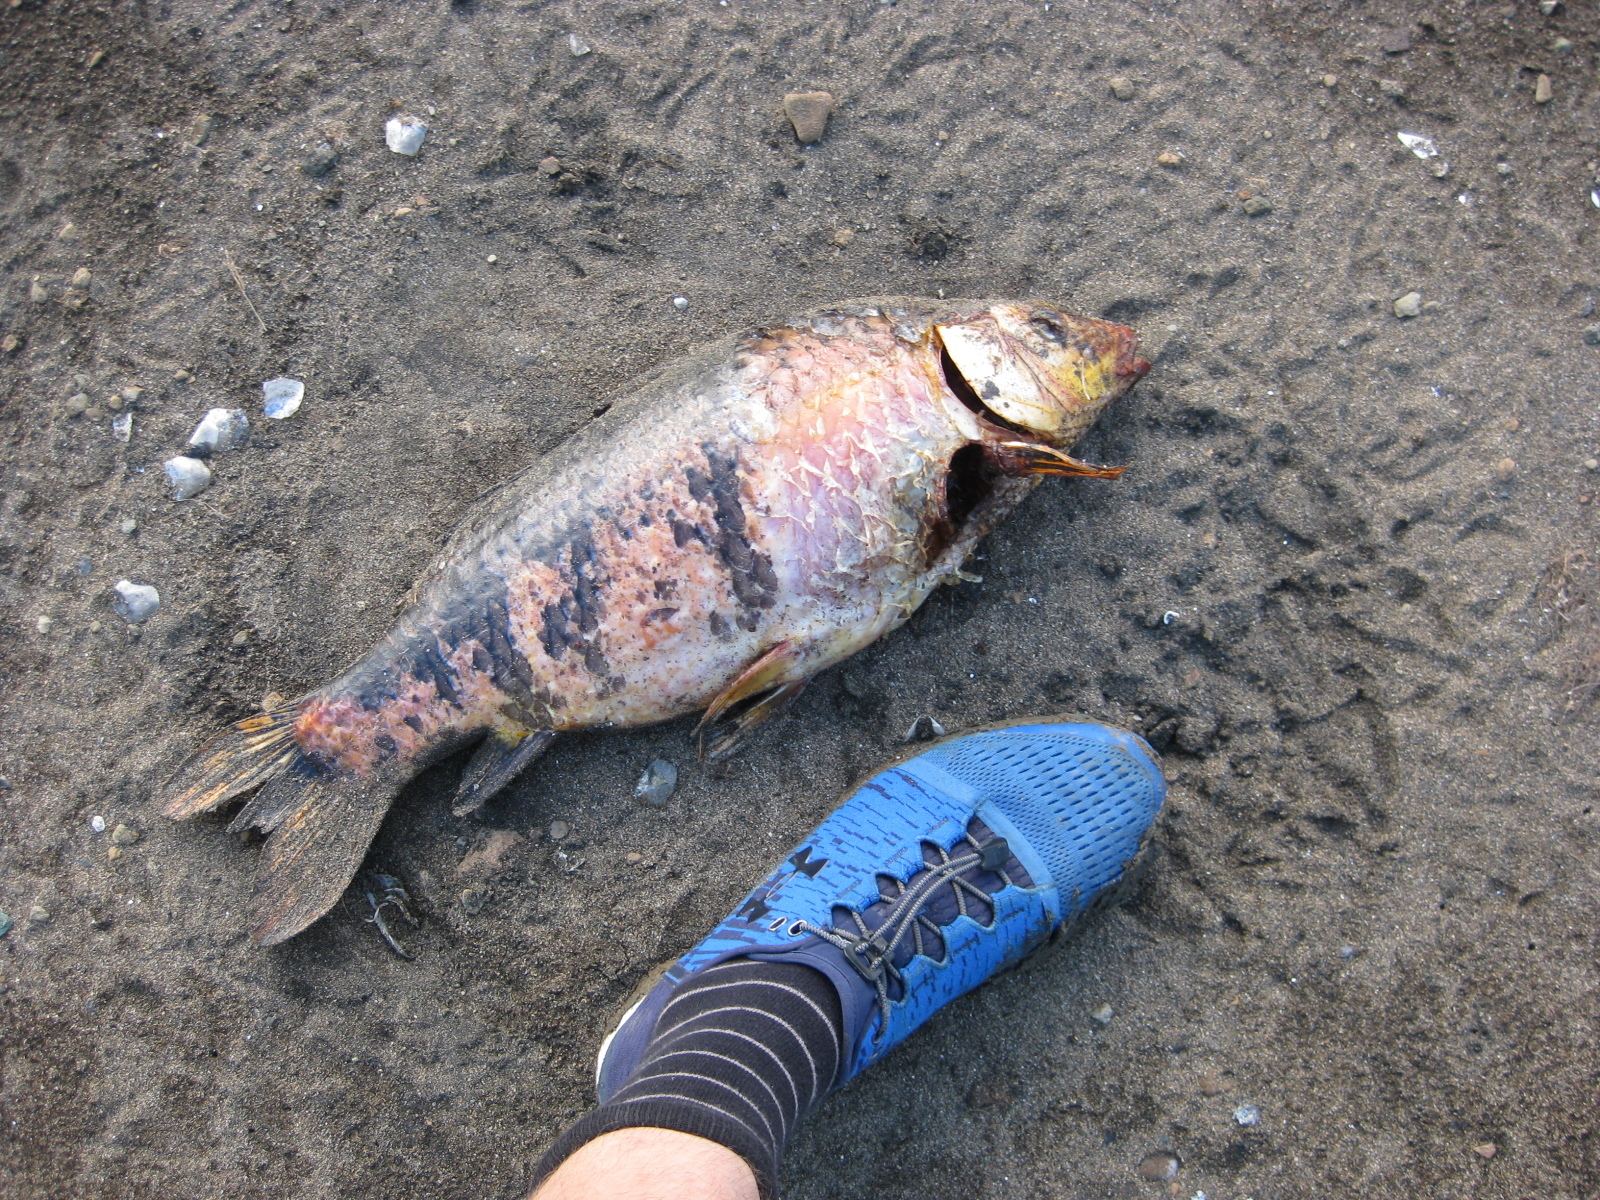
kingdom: Animalia
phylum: Chordata
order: Cypriniformes
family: Cyprinidae
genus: Cyprinus
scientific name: Cyprinus rubrofuscus
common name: Koi
